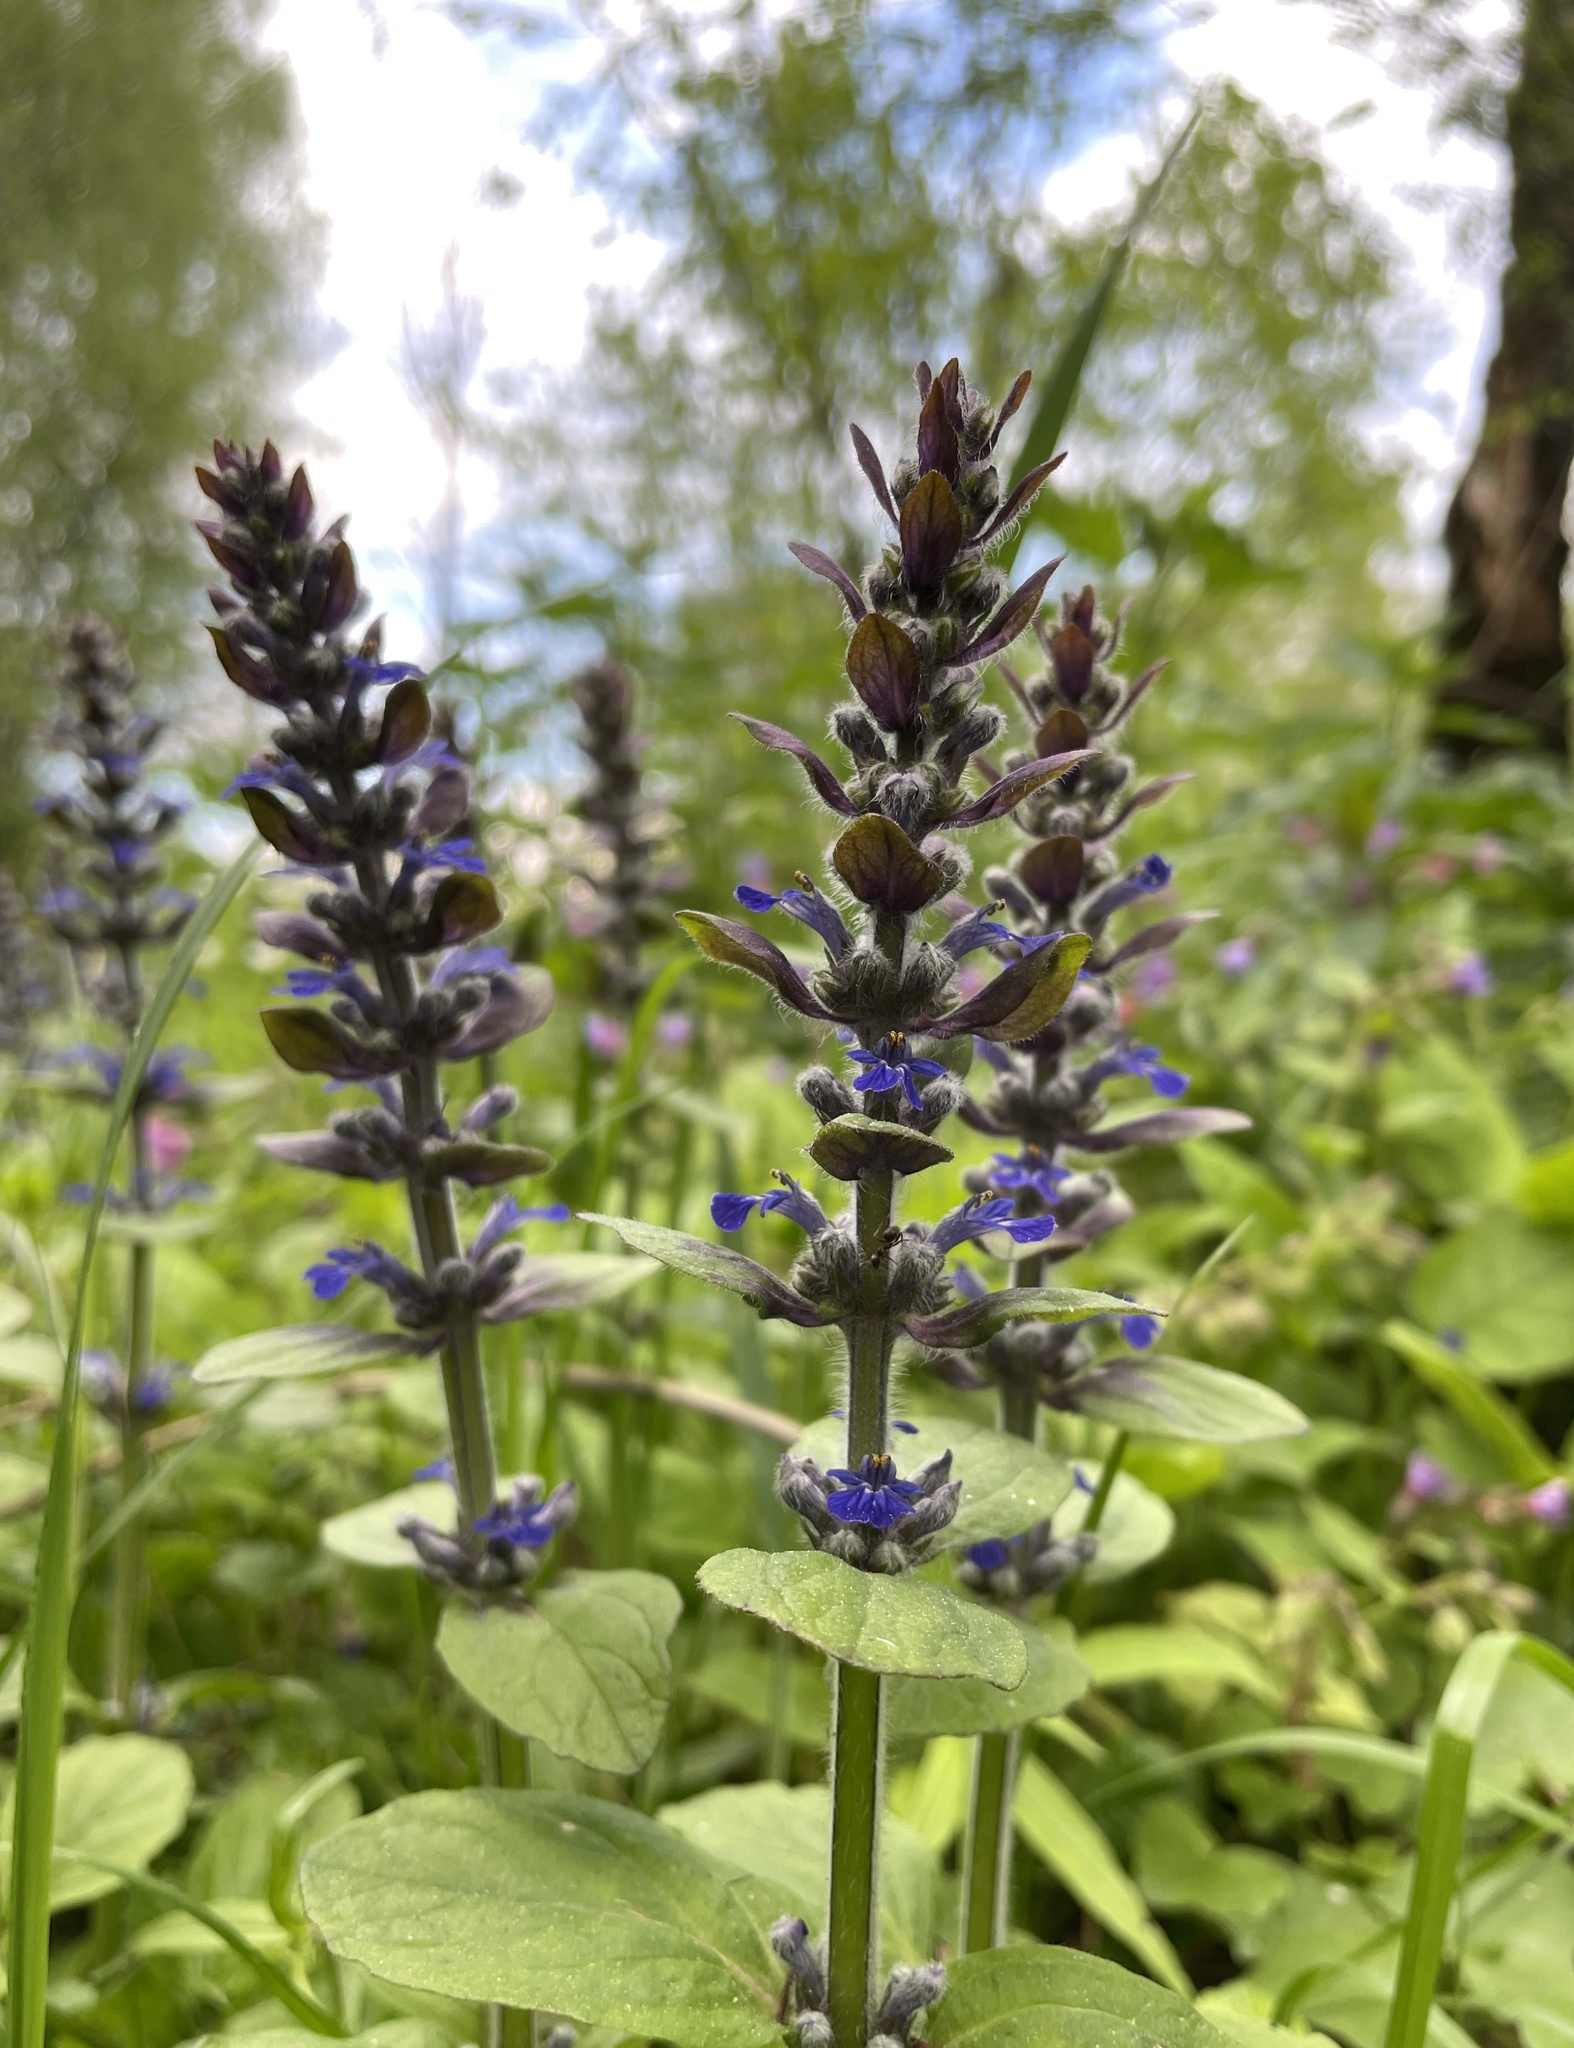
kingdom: Plantae
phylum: Tracheophyta
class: Magnoliopsida
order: Lamiales
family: Lamiaceae
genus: Ajuga
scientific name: Ajuga reptans
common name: Bugle
